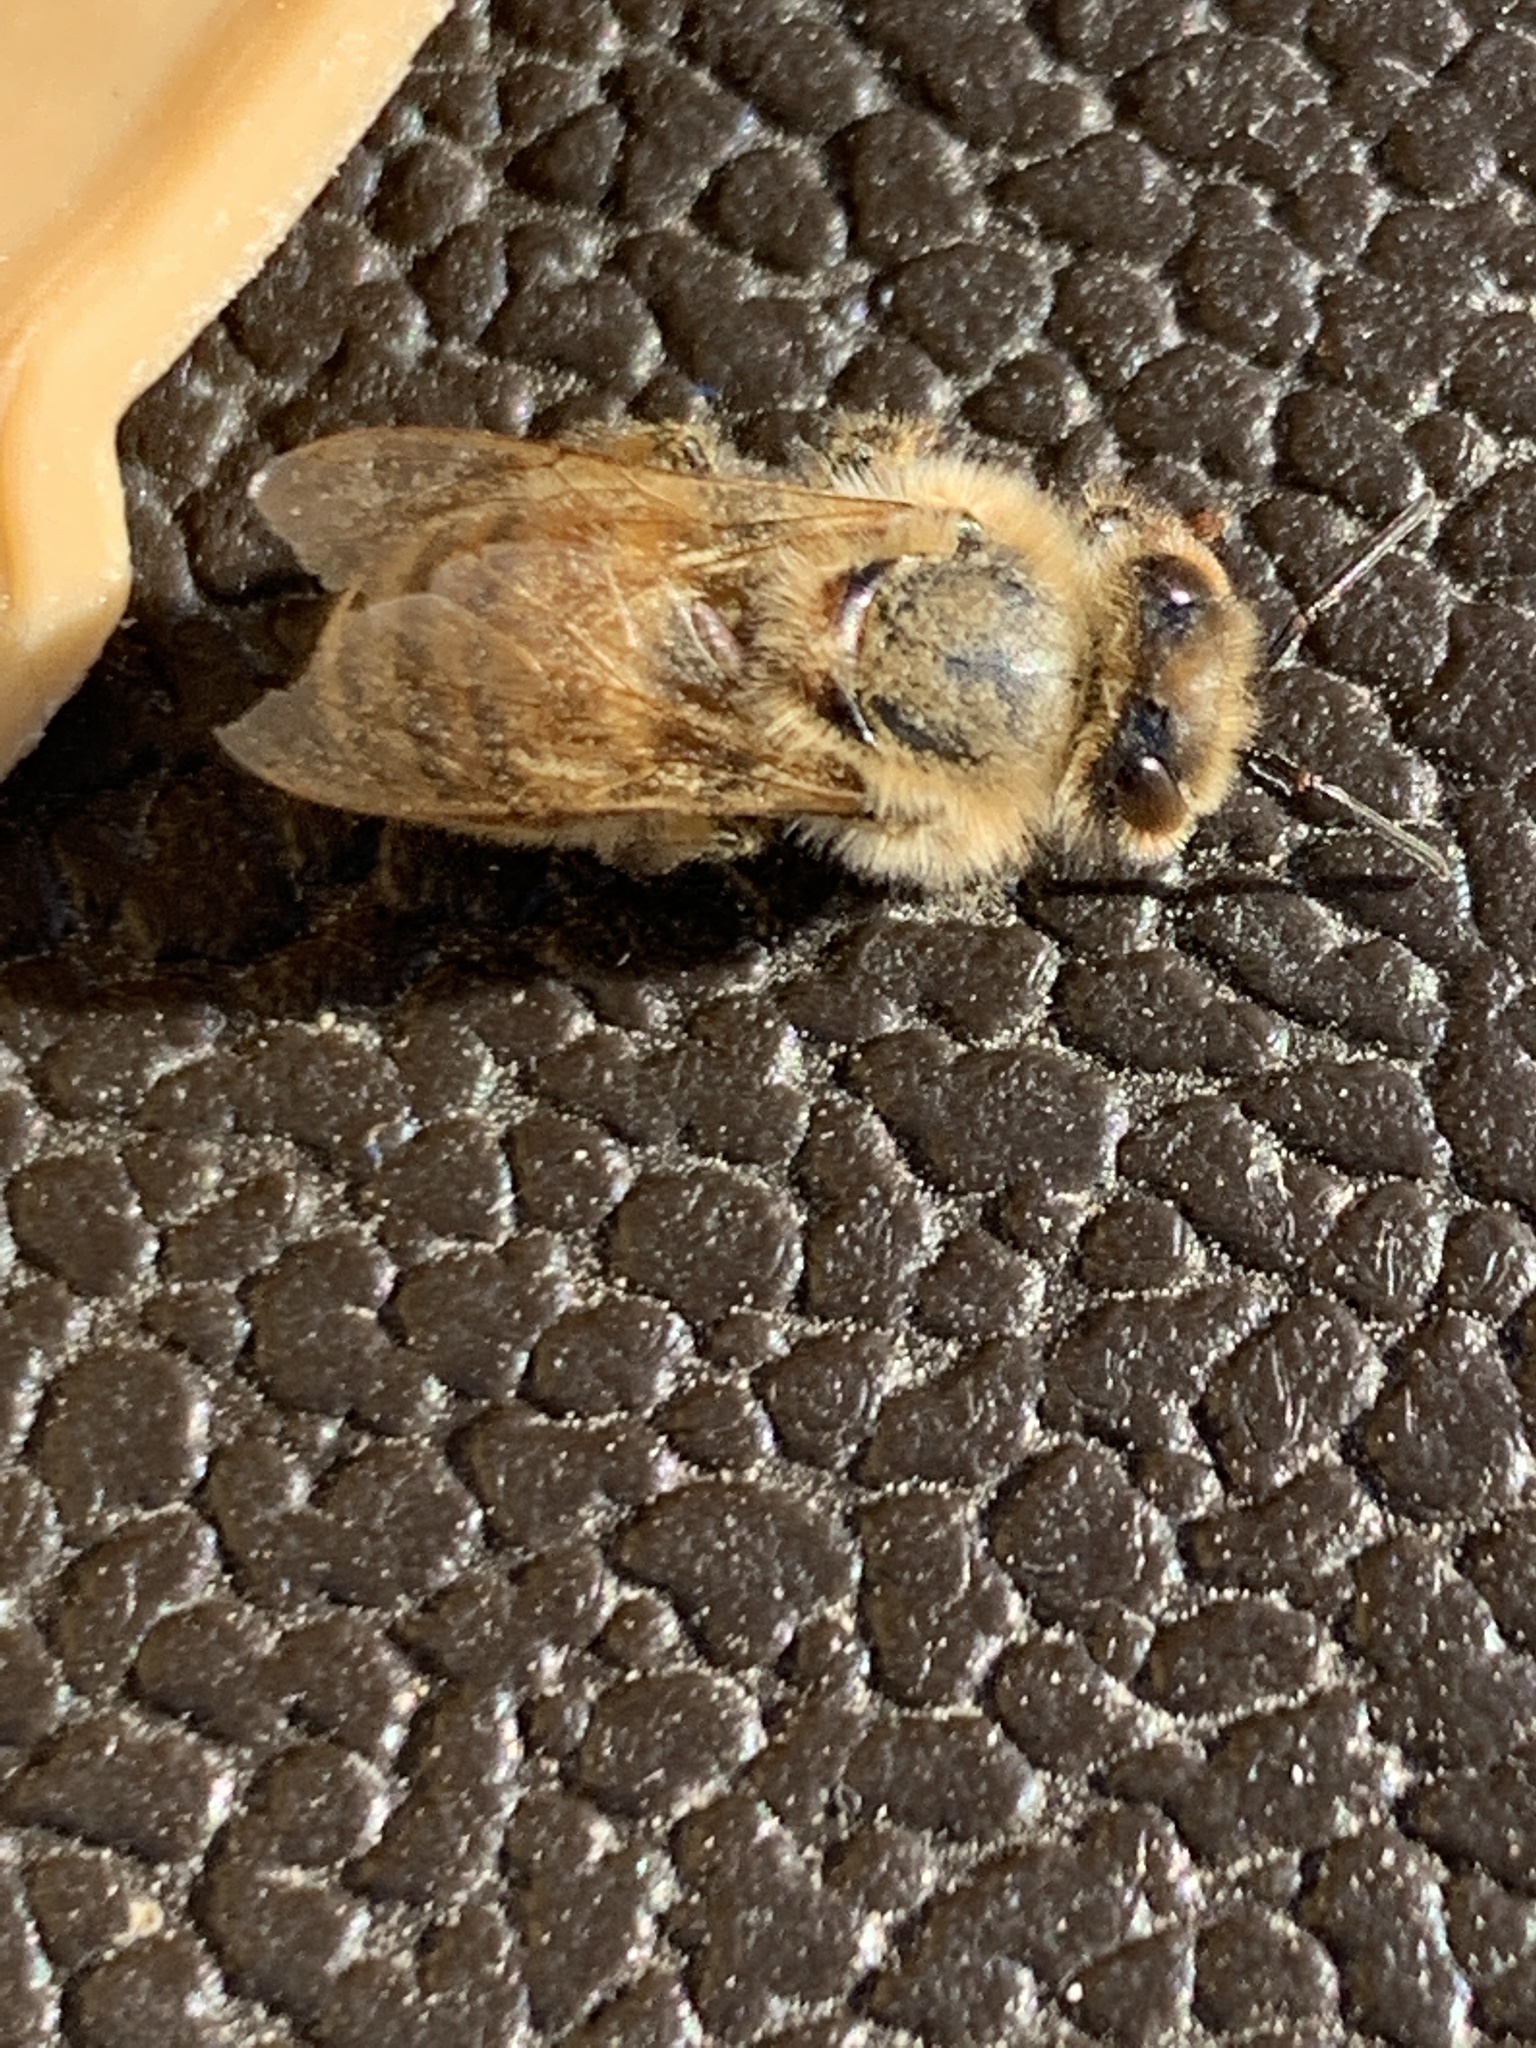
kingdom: Animalia
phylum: Arthropoda
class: Insecta
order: Hymenoptera
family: Apidae
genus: Apis
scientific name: Apis mellifera
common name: Honey bee
